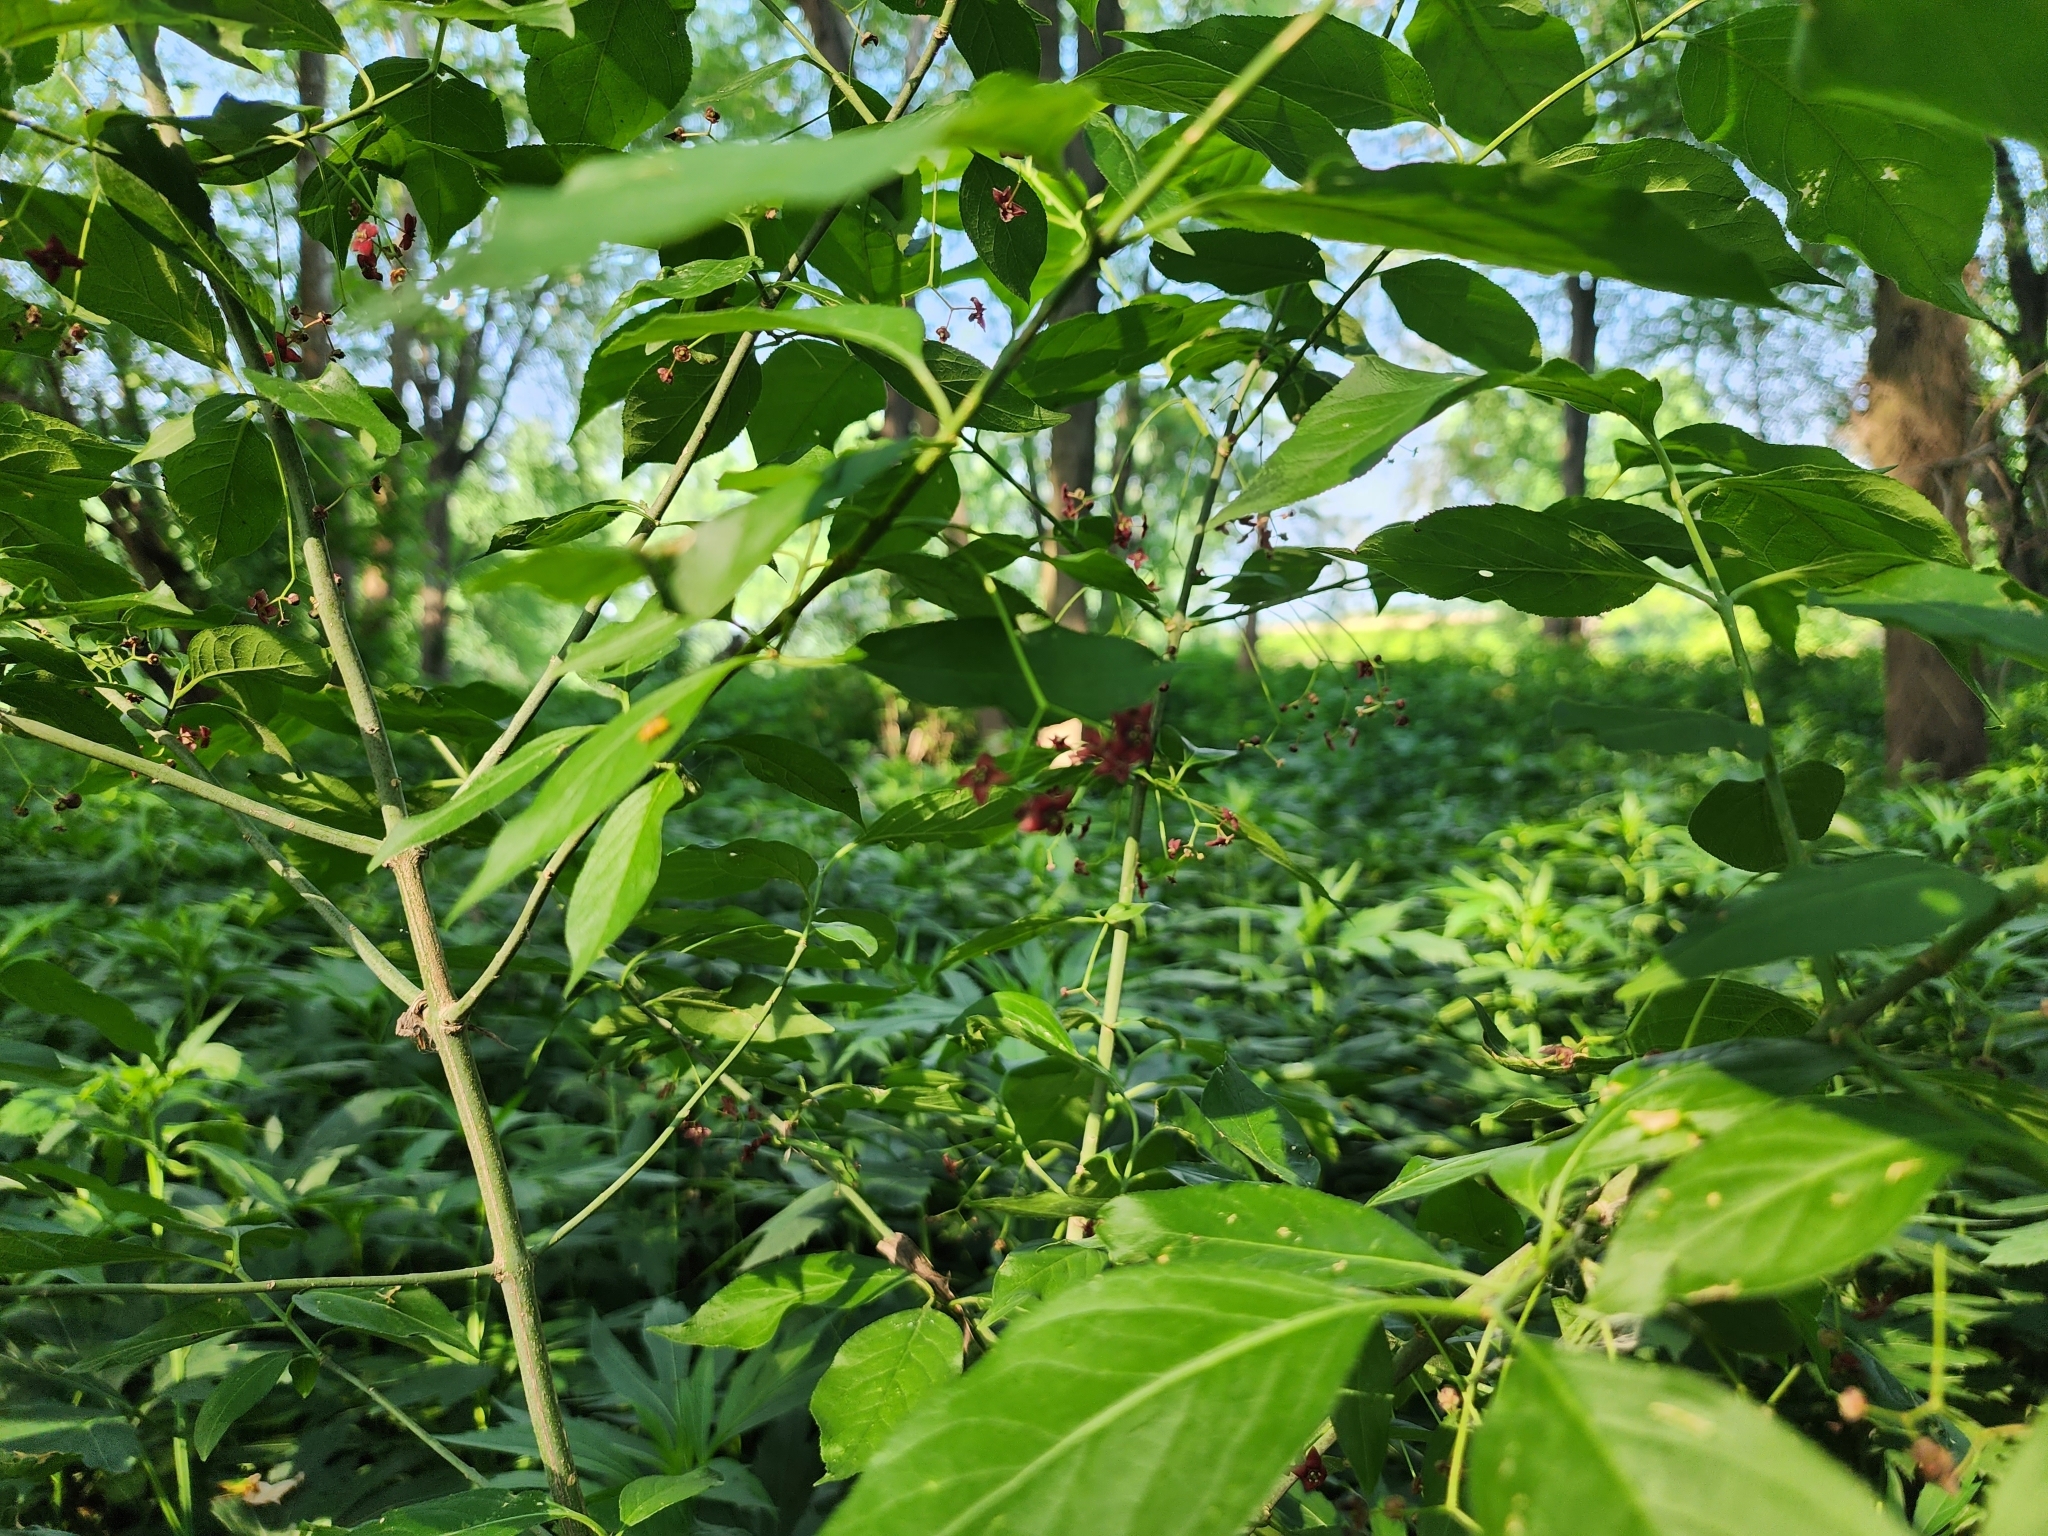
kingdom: Plantae
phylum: Tracheophyta
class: Magnoliopsida
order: Celastrales
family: Celastraceae
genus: Euonymus
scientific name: Euonymus atropurpureus
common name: Eastern wahoo
